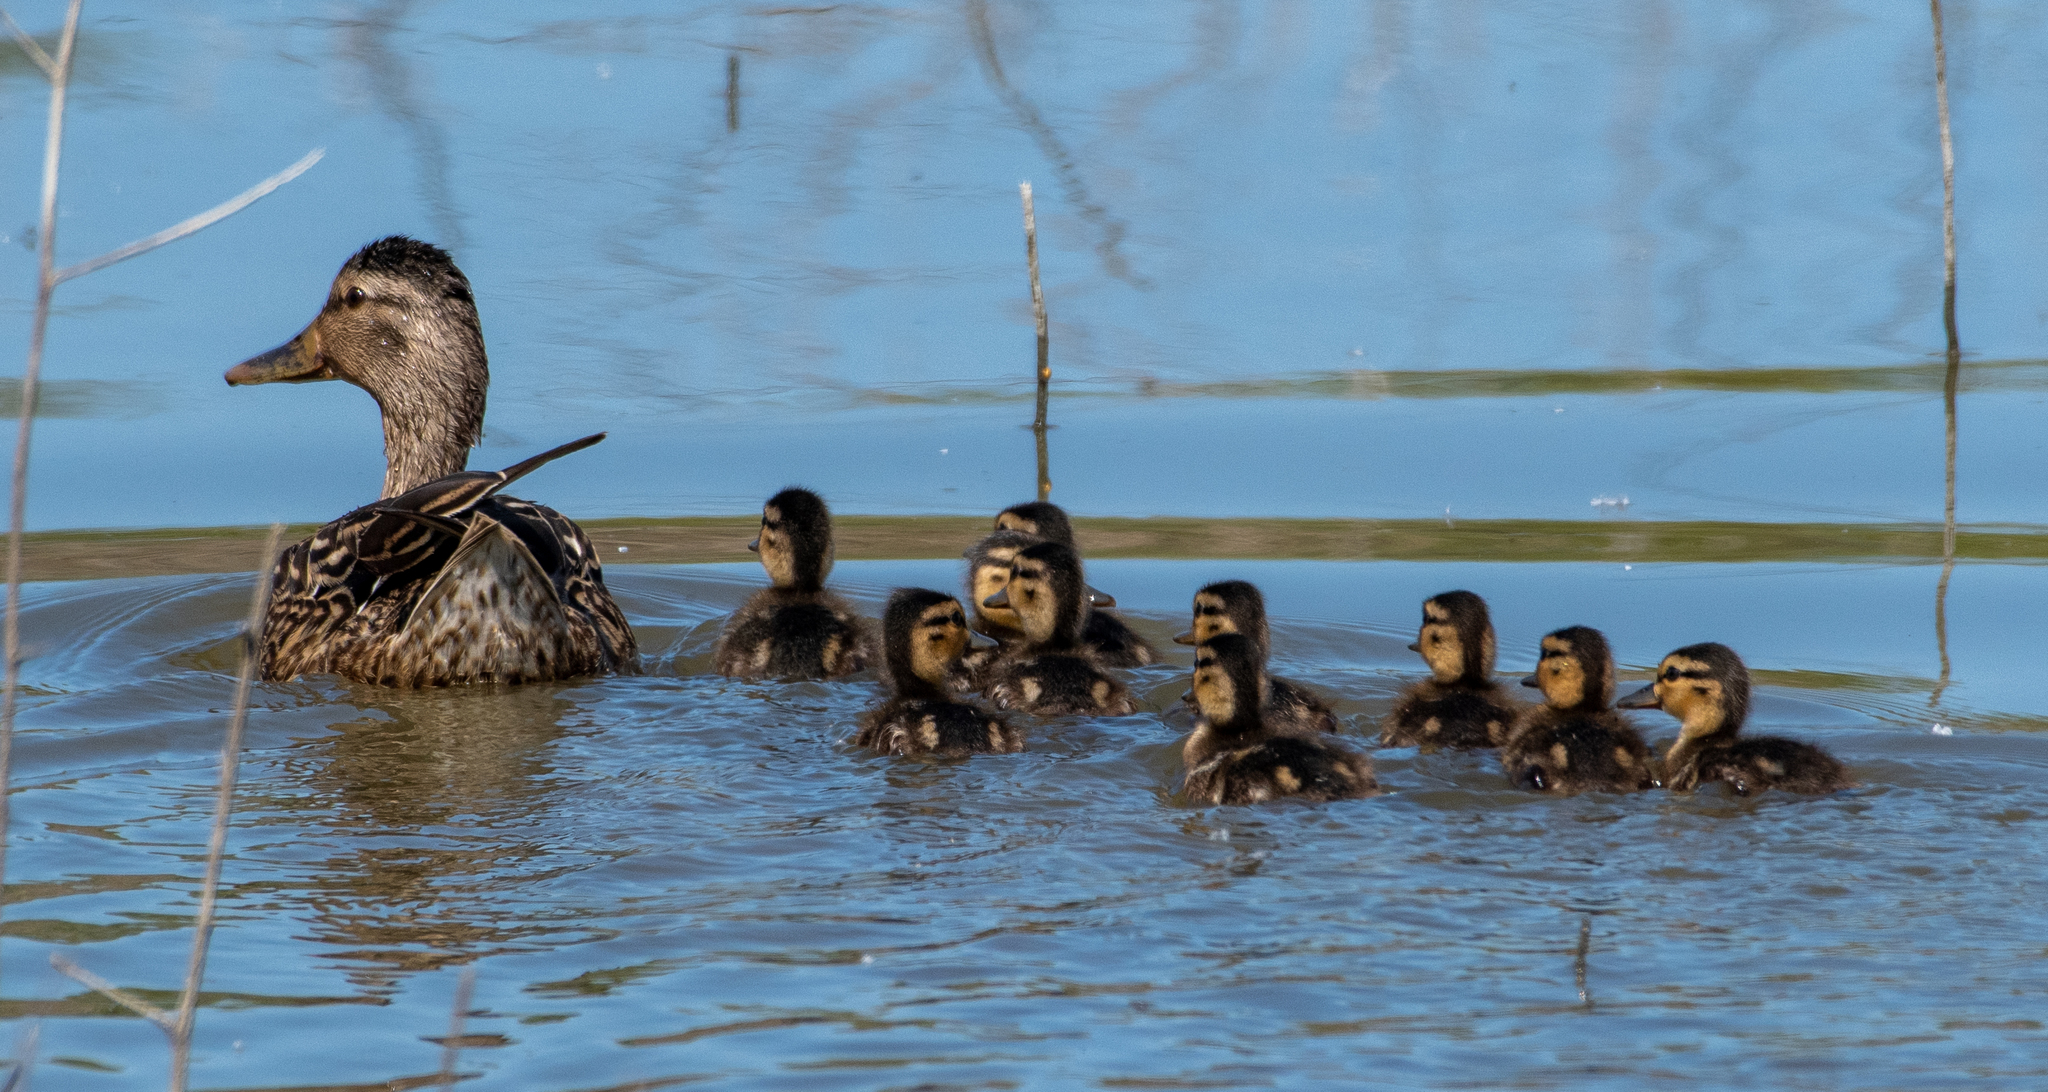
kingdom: Animalia
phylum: Chordata
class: Aves
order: Anseriformes
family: Anatidae
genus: Anas
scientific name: Anas platyrhynchos
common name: Mallard
